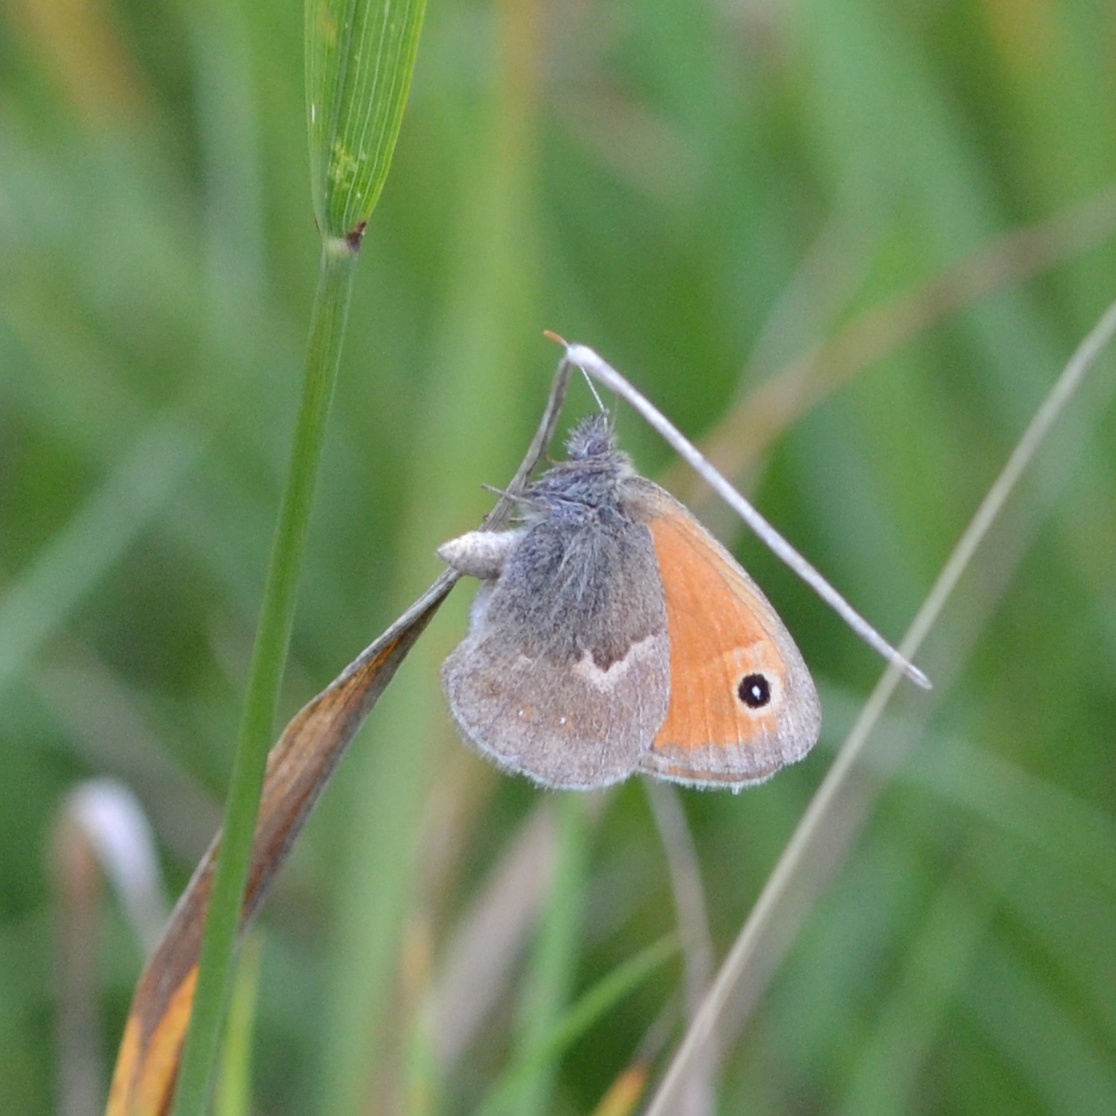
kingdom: Animalia
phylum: Arthropoda
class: Insecta
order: Lepidoptera
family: Nymphalidae
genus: Coenonympha
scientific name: Coenonympha pamphilus
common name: Small heath
